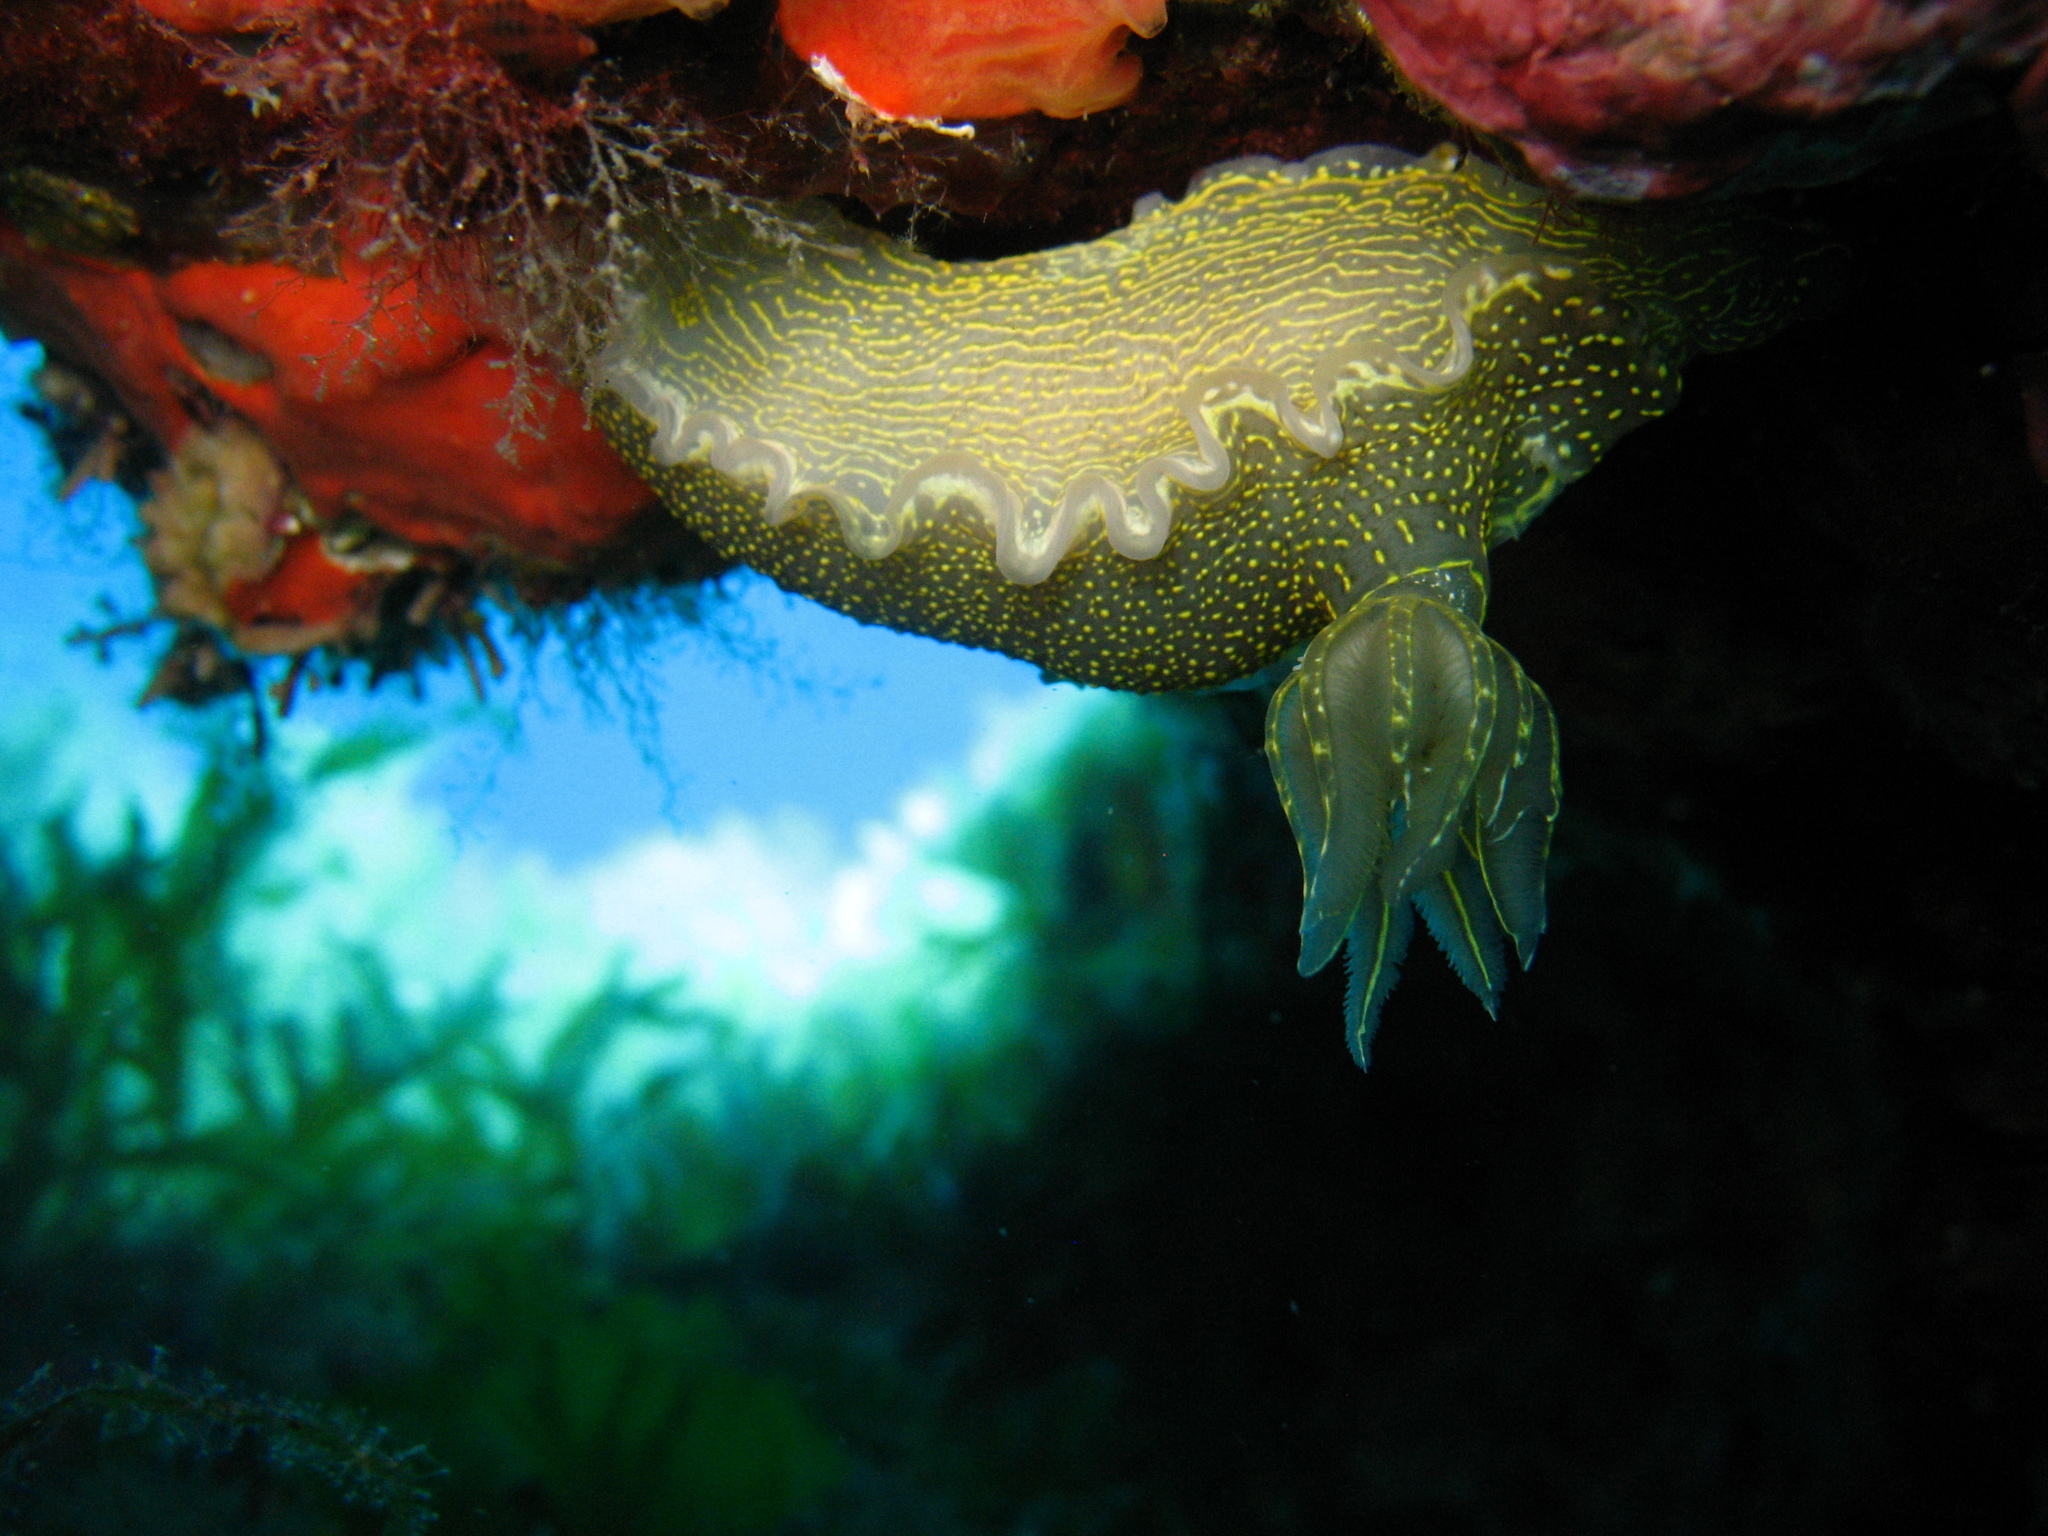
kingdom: Animalia
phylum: Mollusca
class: Gastropoda
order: Nudibranchia
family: Chromodorididae
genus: Felimare
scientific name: Felimare picta
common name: Giant doris
